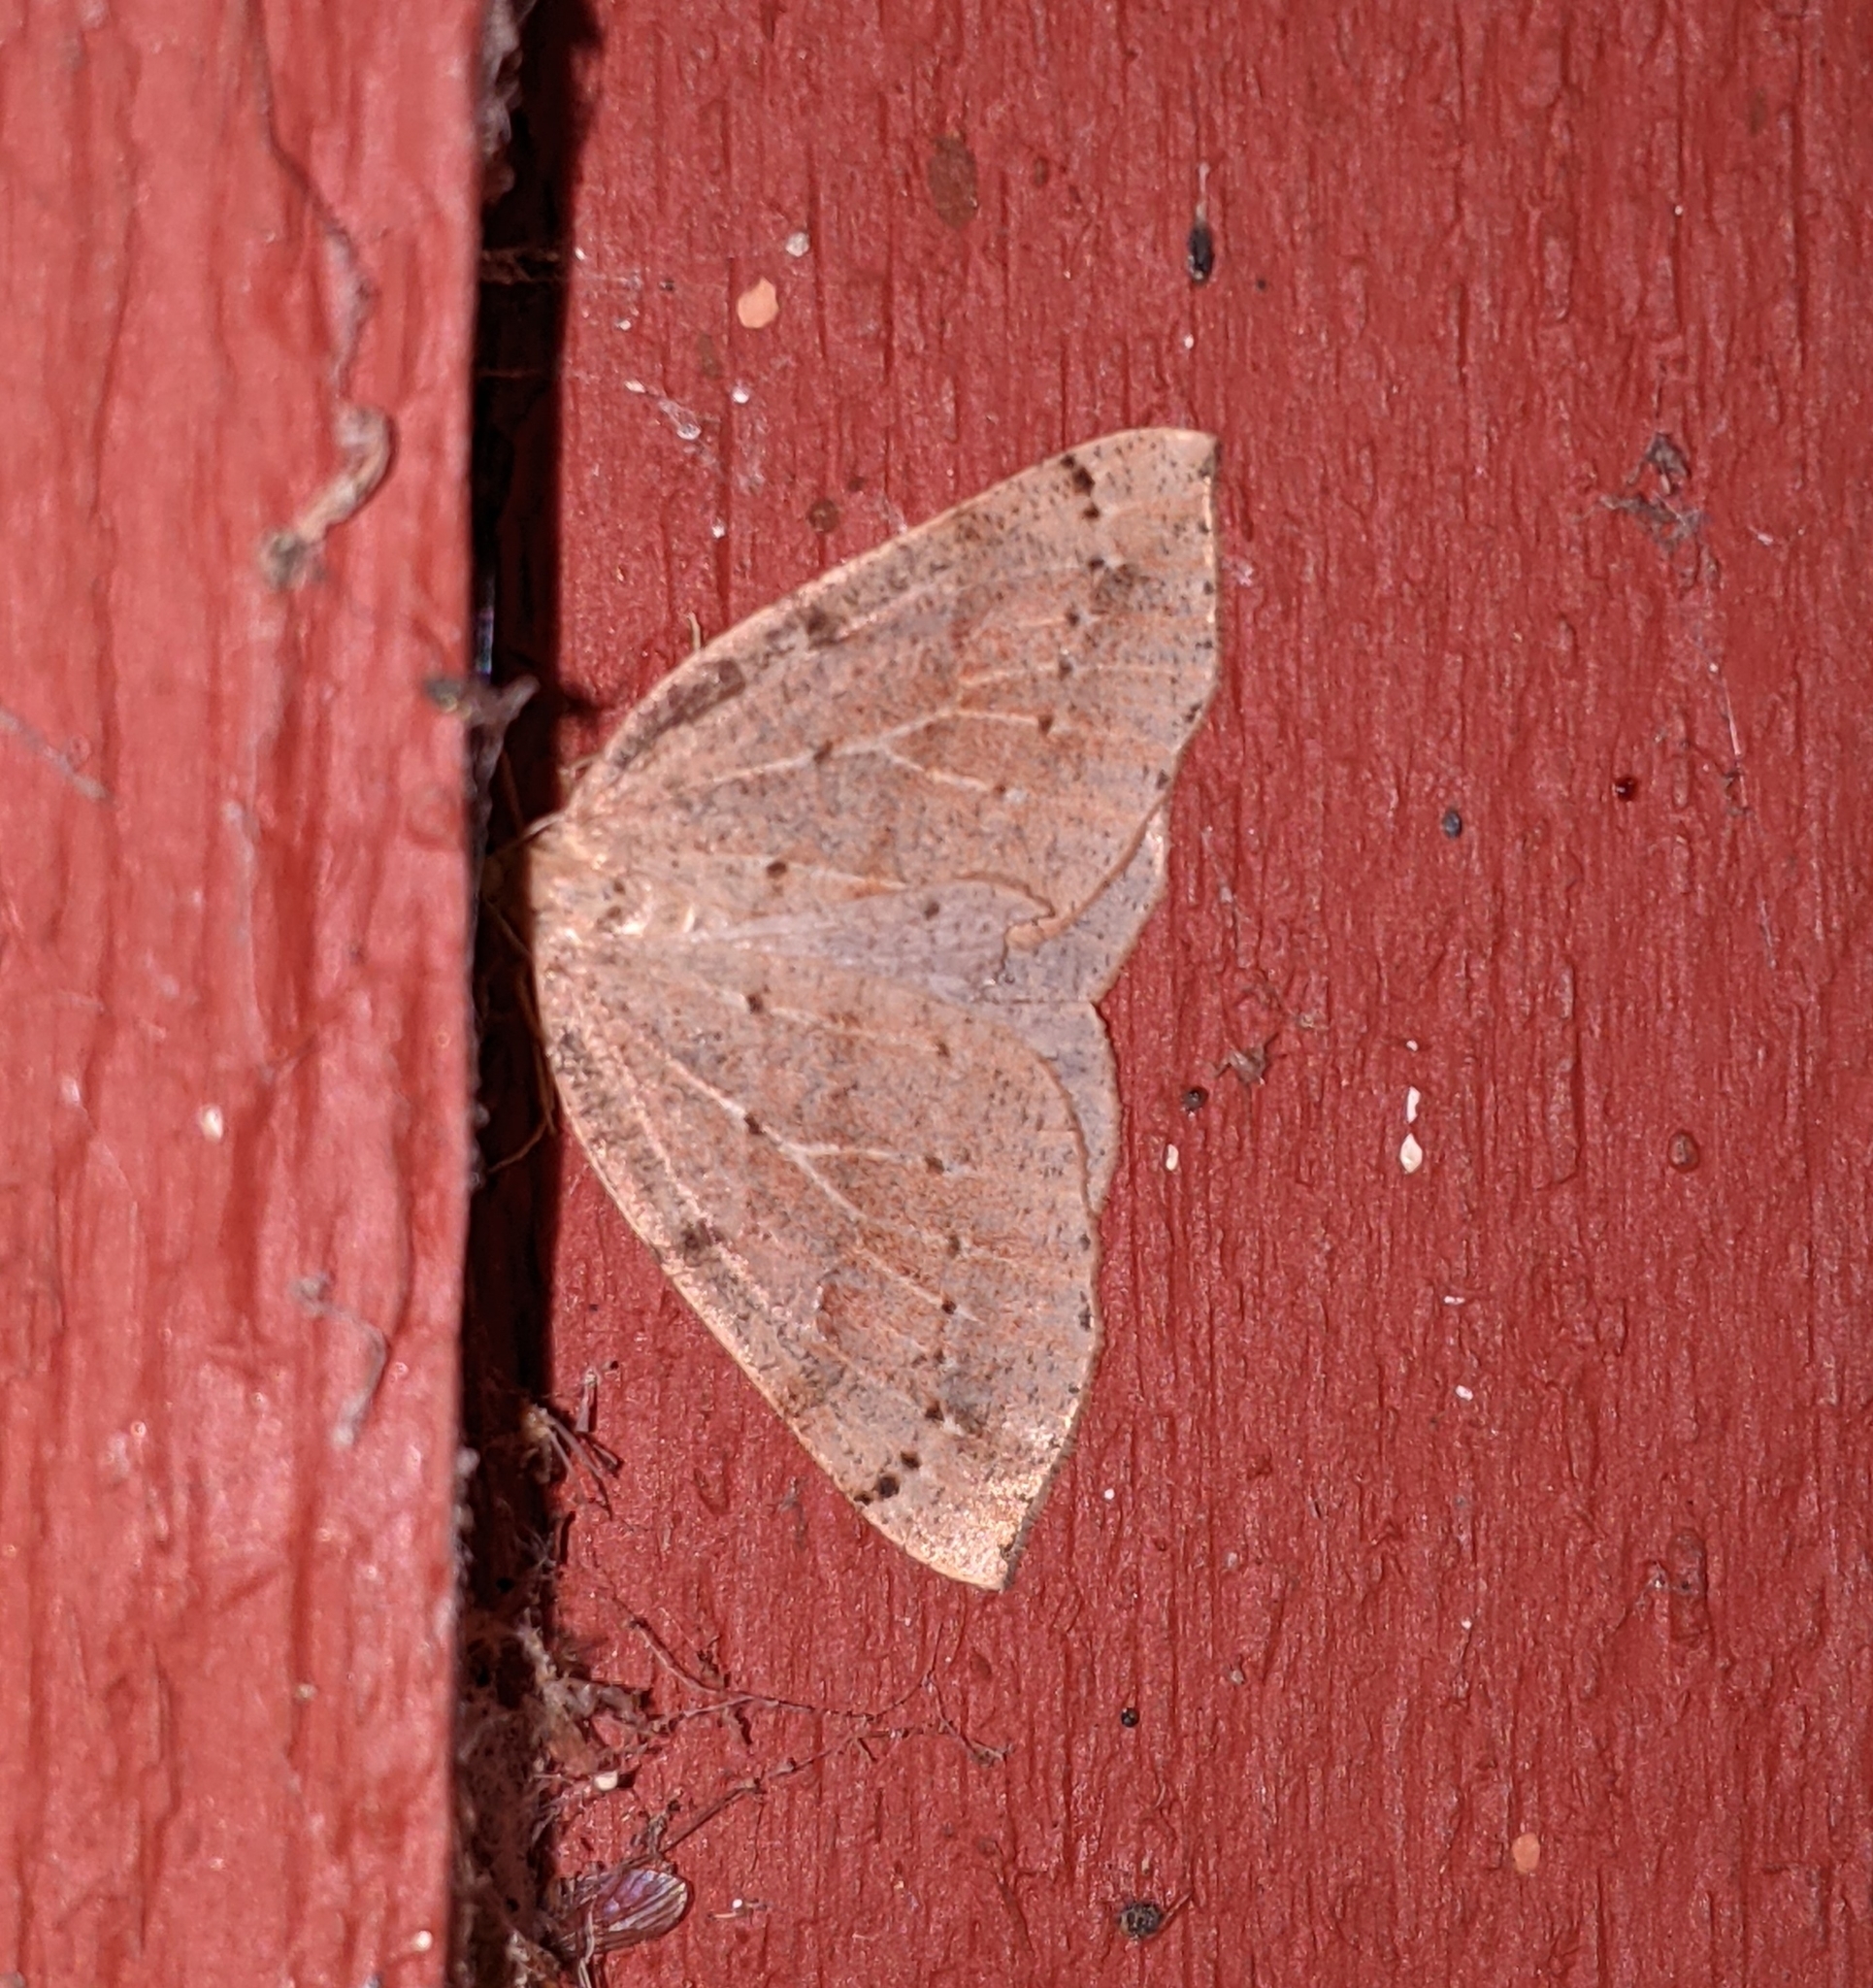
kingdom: Animalia
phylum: Arthropoda
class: Insecta
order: Lepidoptera
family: Geometridae
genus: Thallophaga
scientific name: Thallophaga hyperborea
